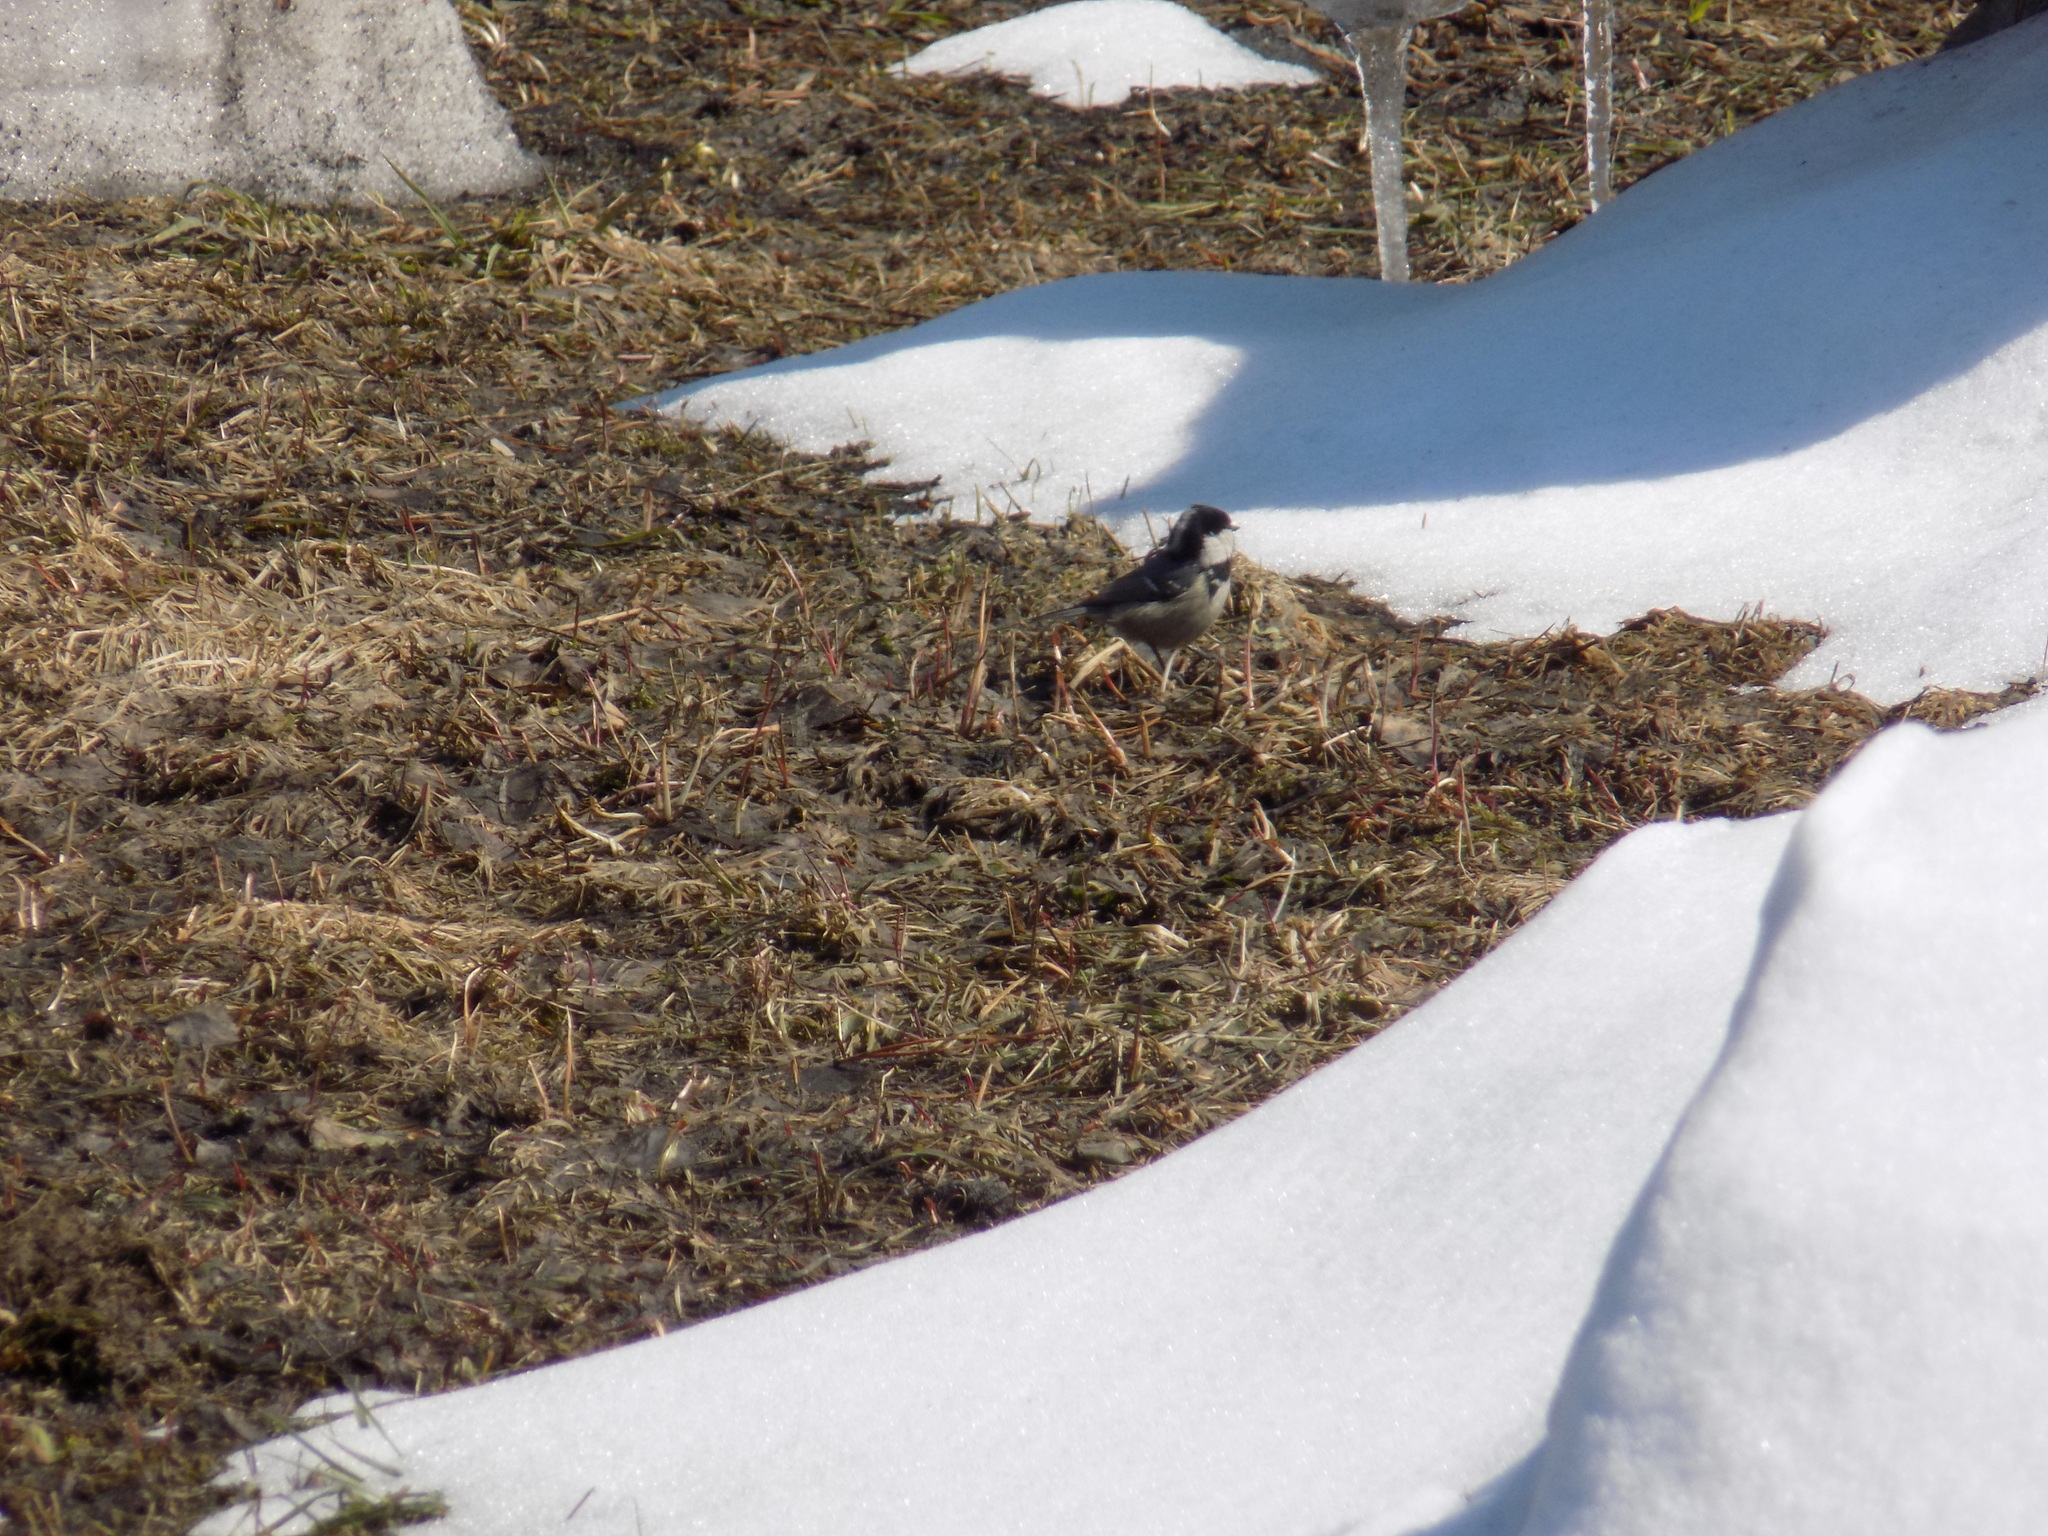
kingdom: Animalia
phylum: Chordata
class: Aves
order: Passeriformes
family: Paridae
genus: Periparus
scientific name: Periparus ater
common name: Coal tit
